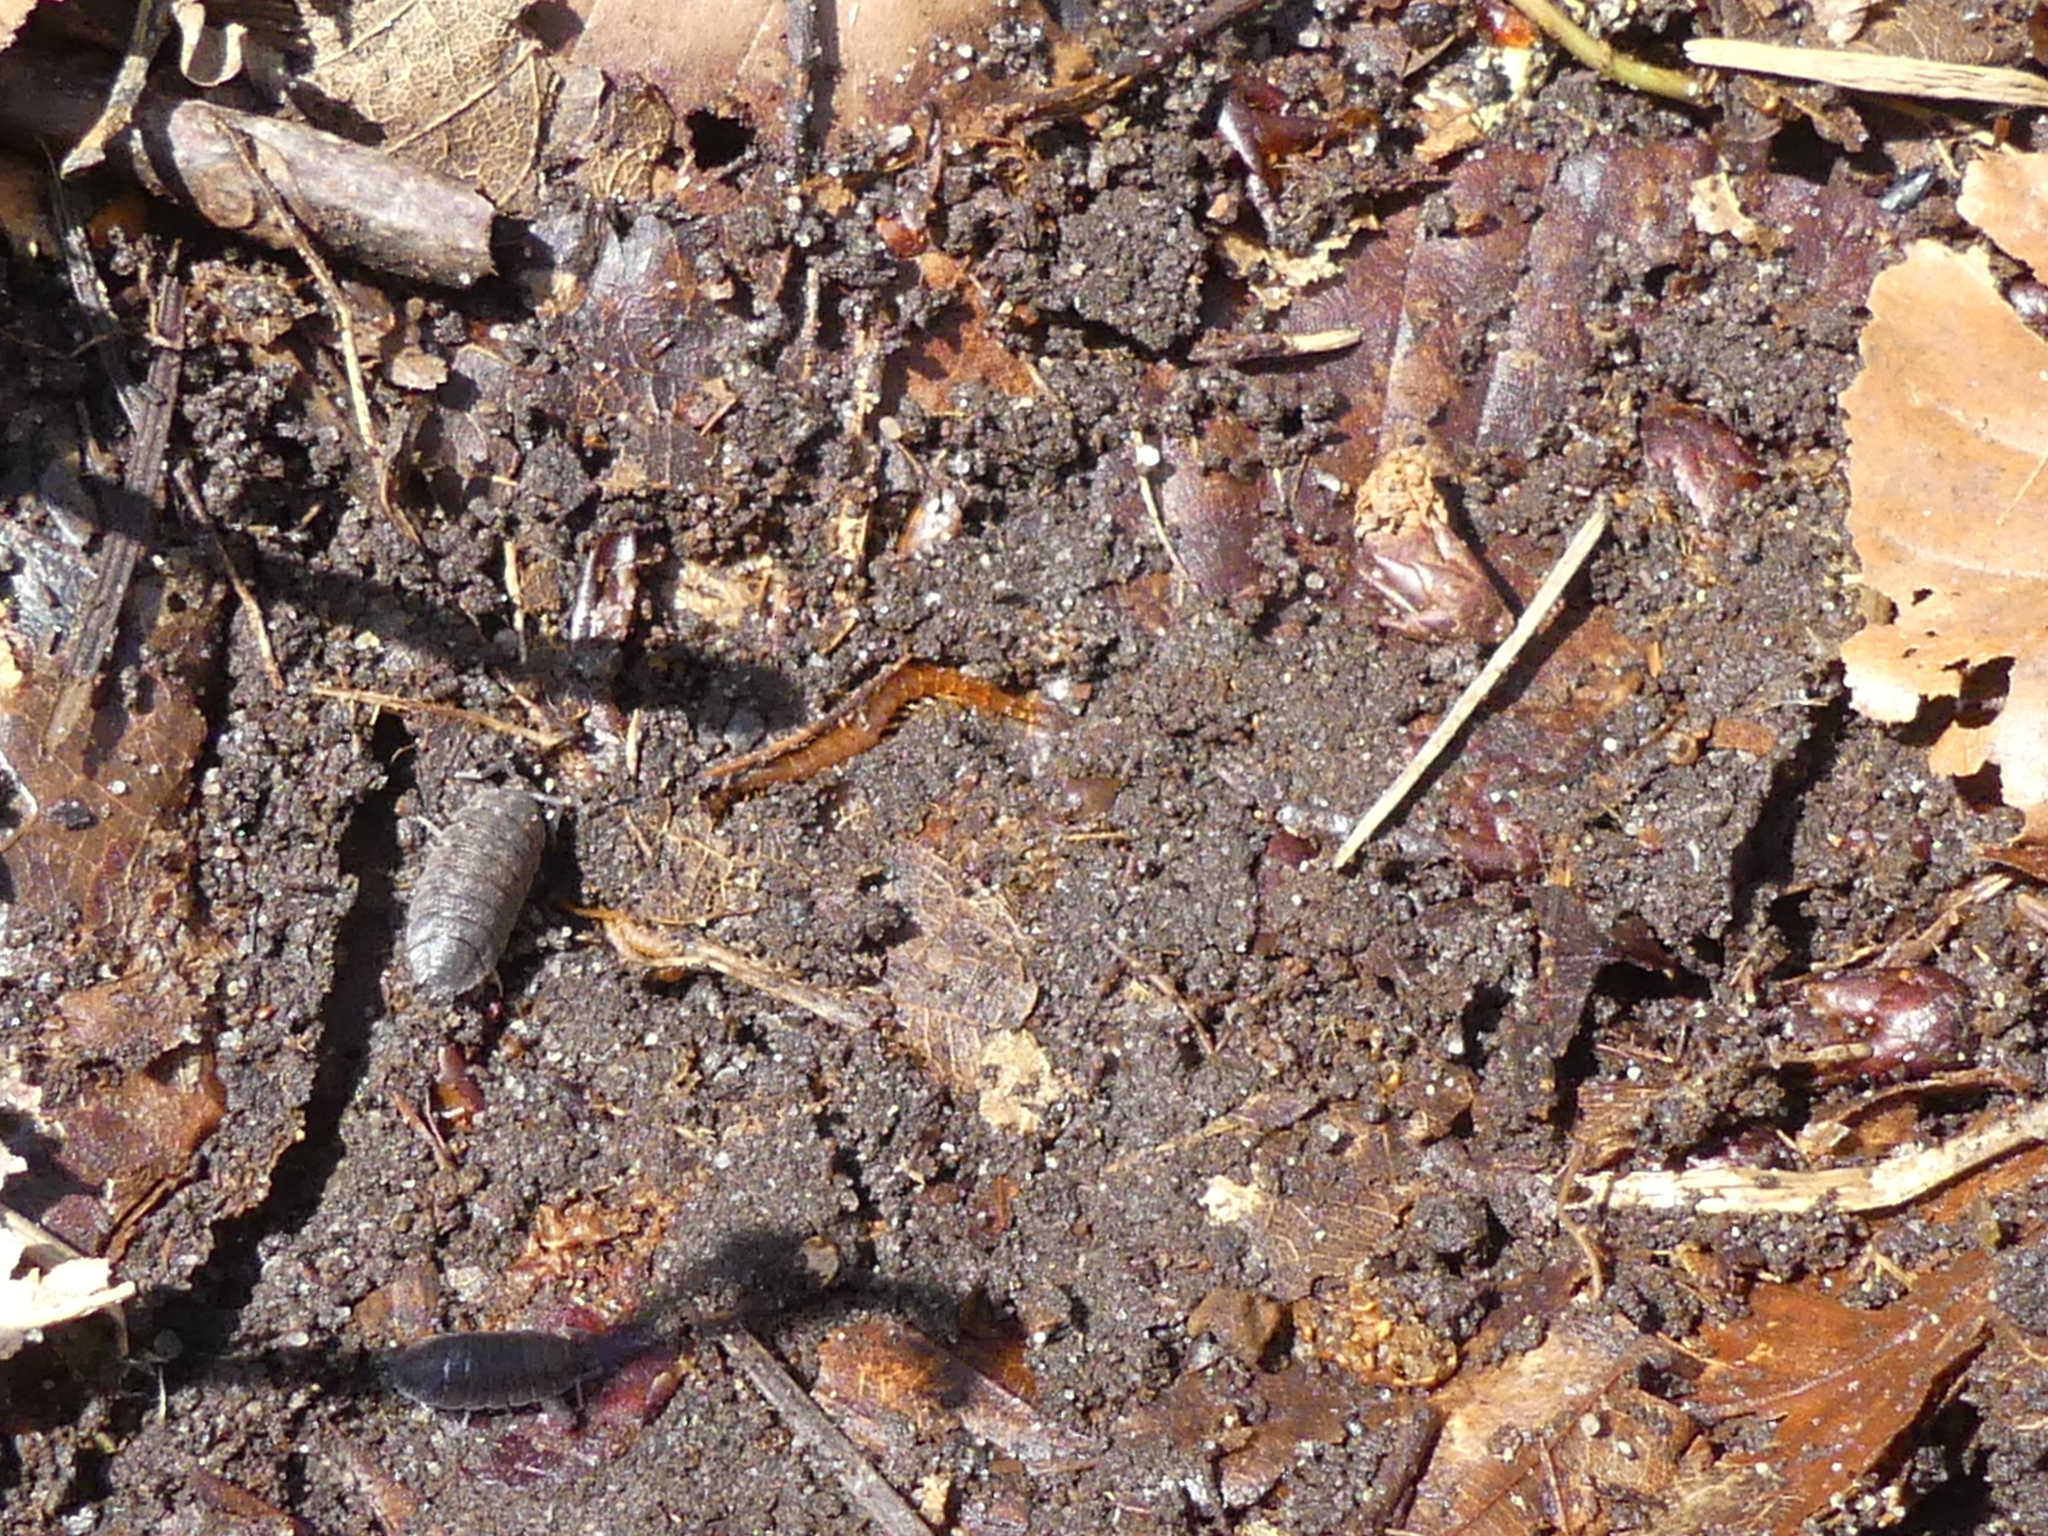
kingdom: Animalia
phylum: Arthropoda
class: Malacostraca
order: Isopoda
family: Porcellionidae
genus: Porcellio
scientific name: Porcellio scaber
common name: Common rough woodlouse
